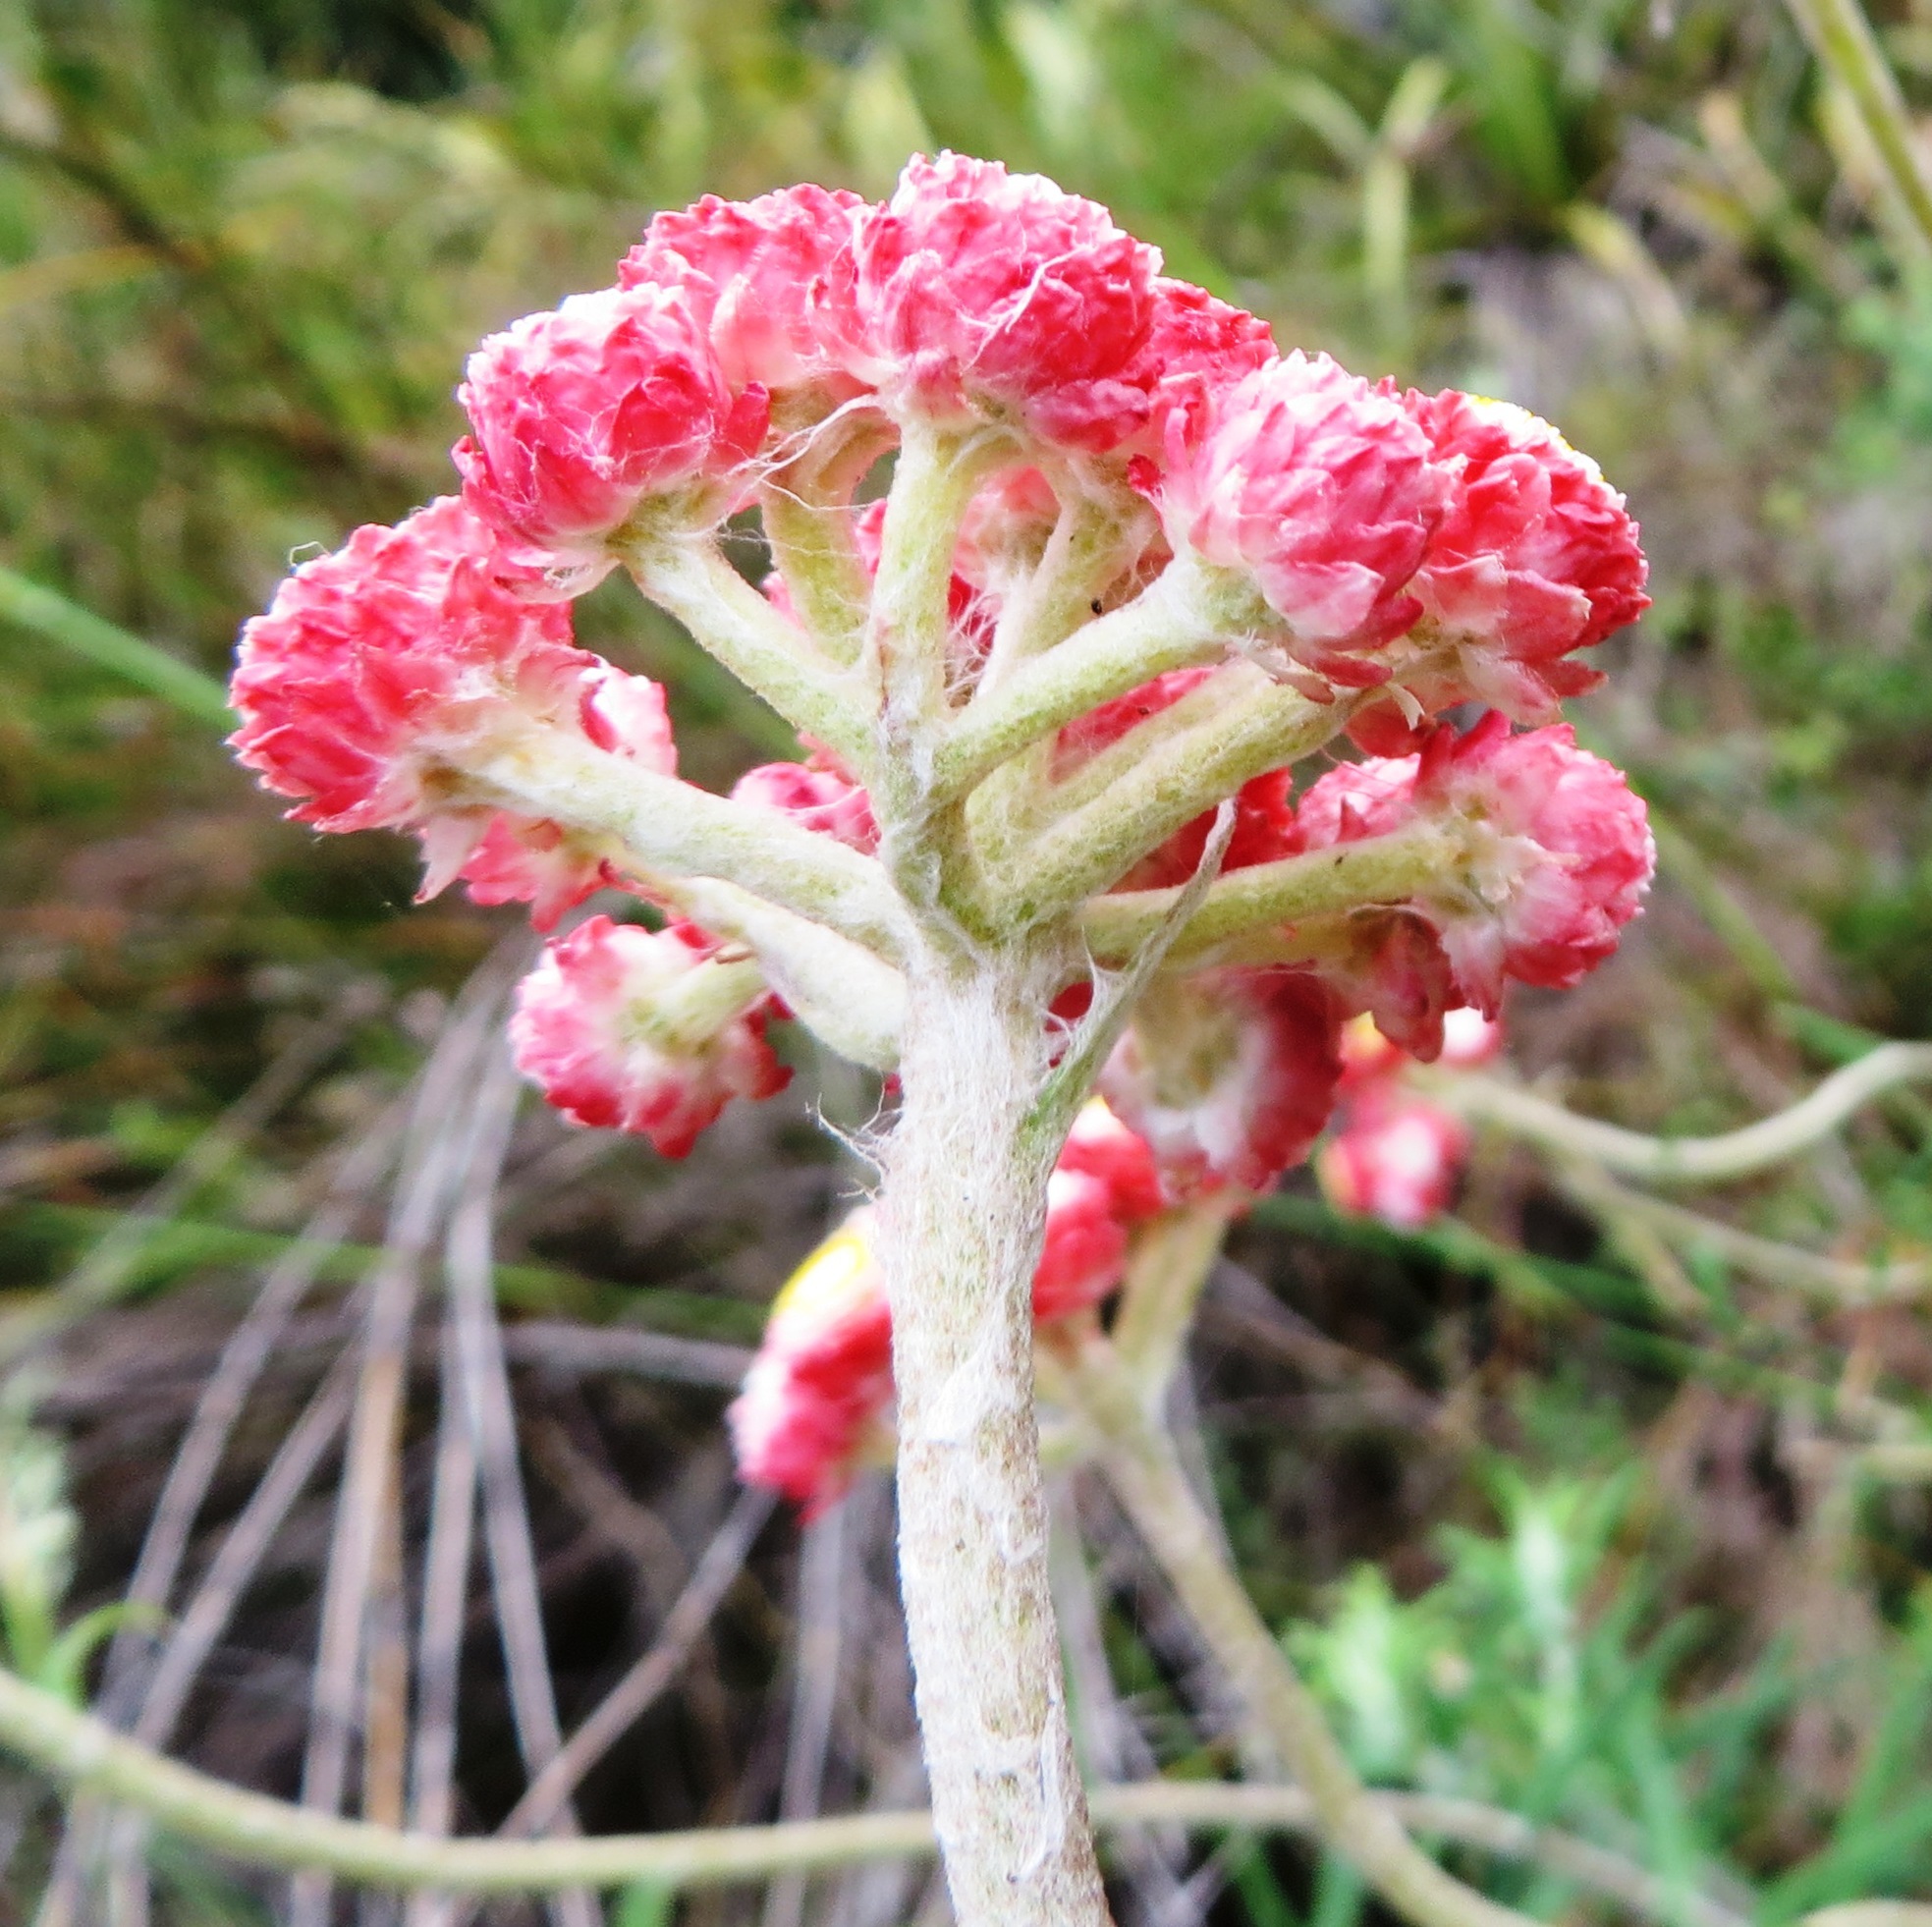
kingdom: Plantae
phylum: Tracheophyta
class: Magnoliopsida
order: Asterales
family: Asteraceae
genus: Helichrysum
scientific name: Helichrysum felinum
